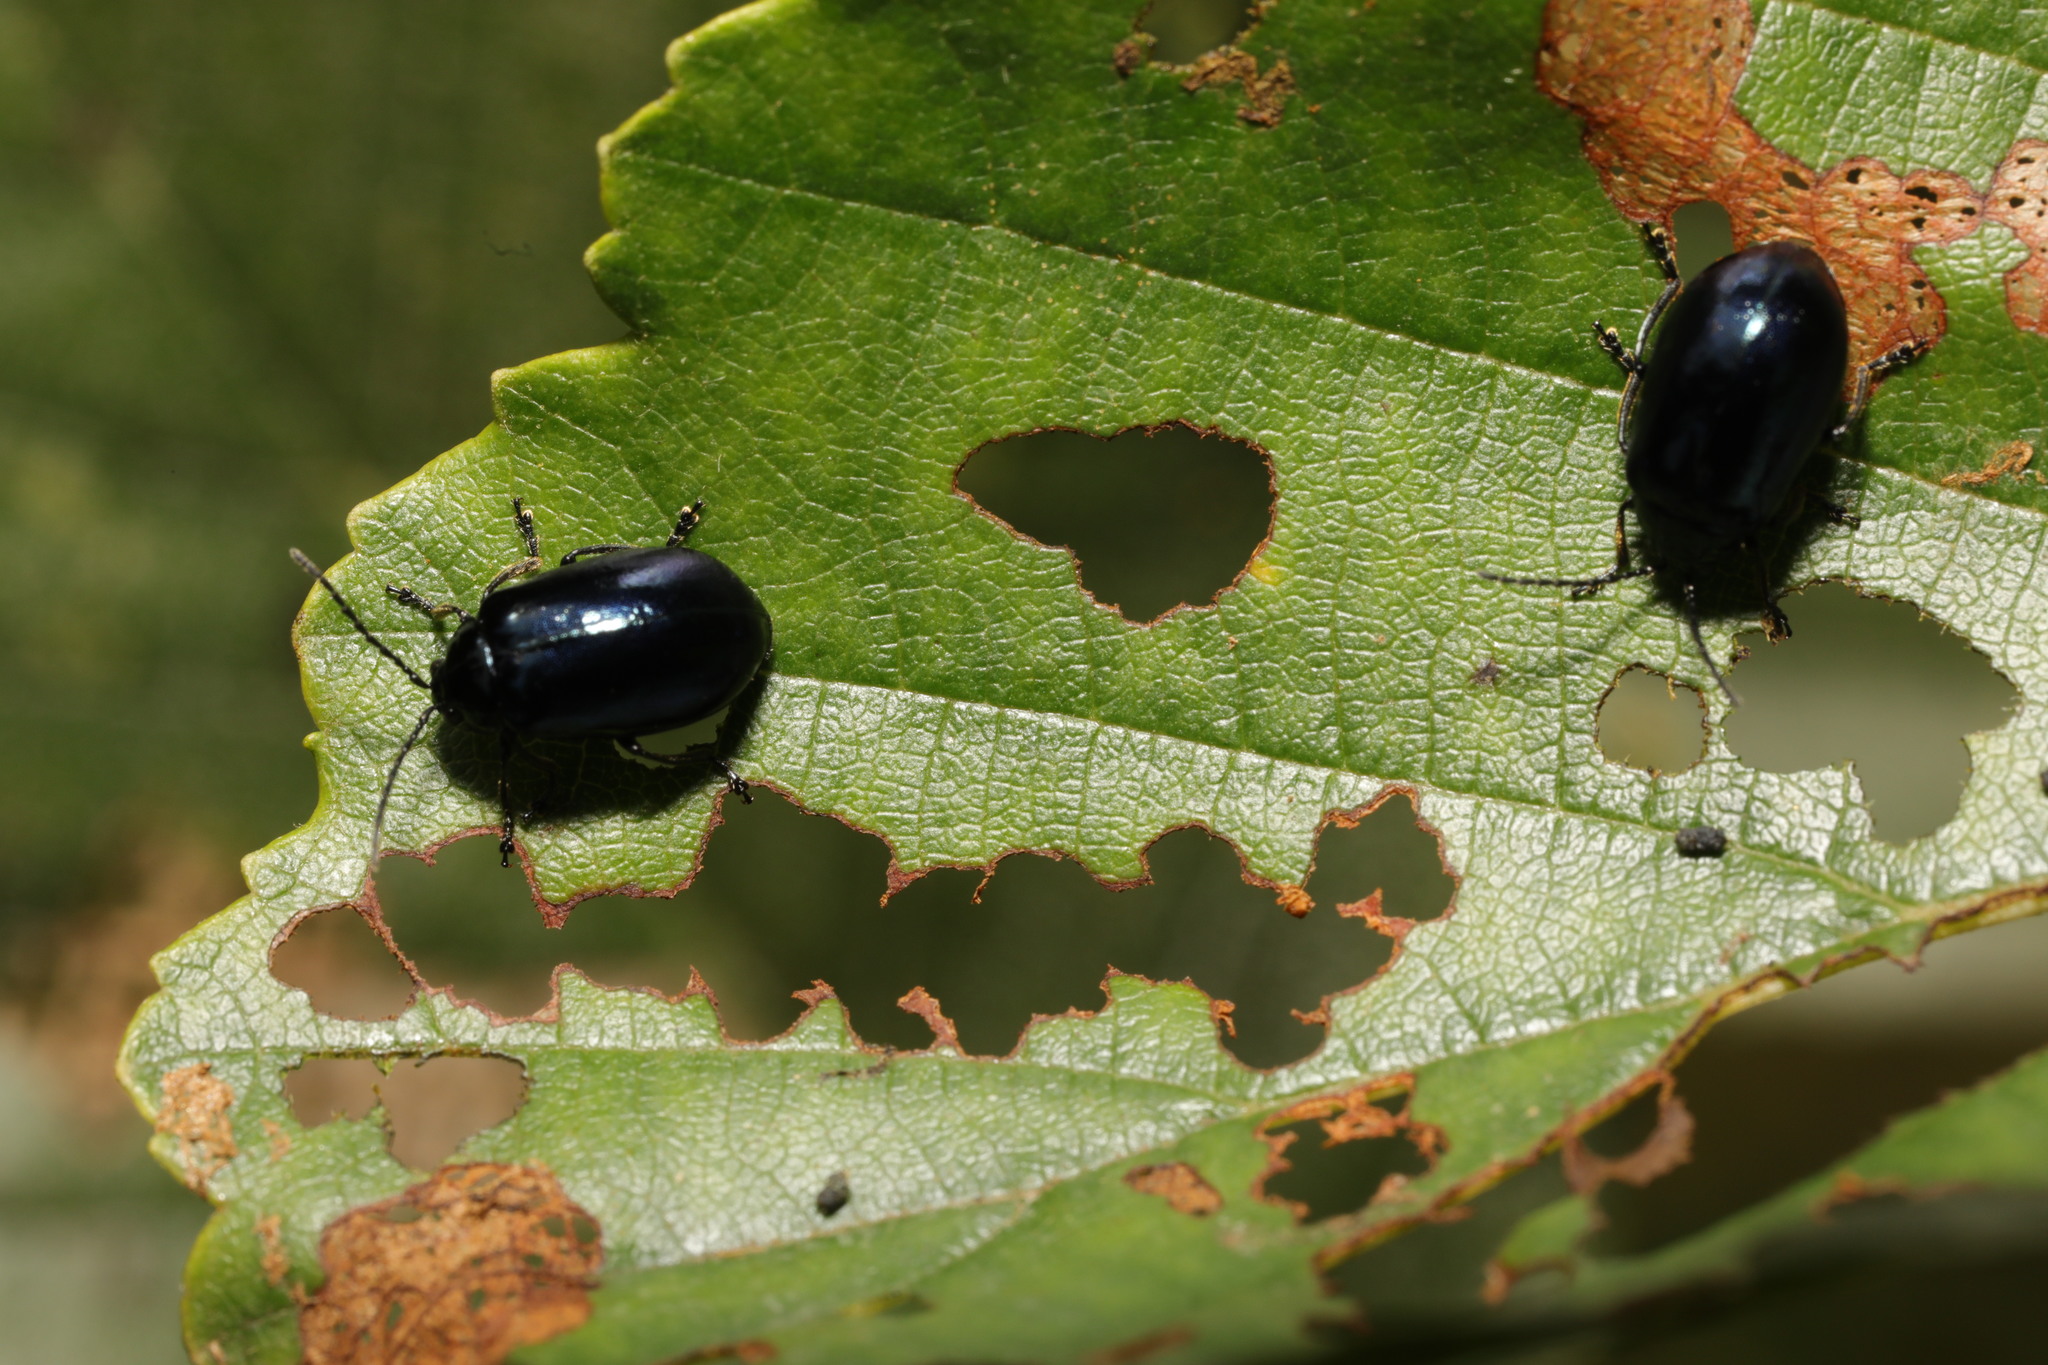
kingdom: Animalia
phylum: Arthropoda
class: Insecta
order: Coleoptera
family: Chrysomelidae
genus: Agelastica
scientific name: Agelastica alni
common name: Alder leaf beetle
